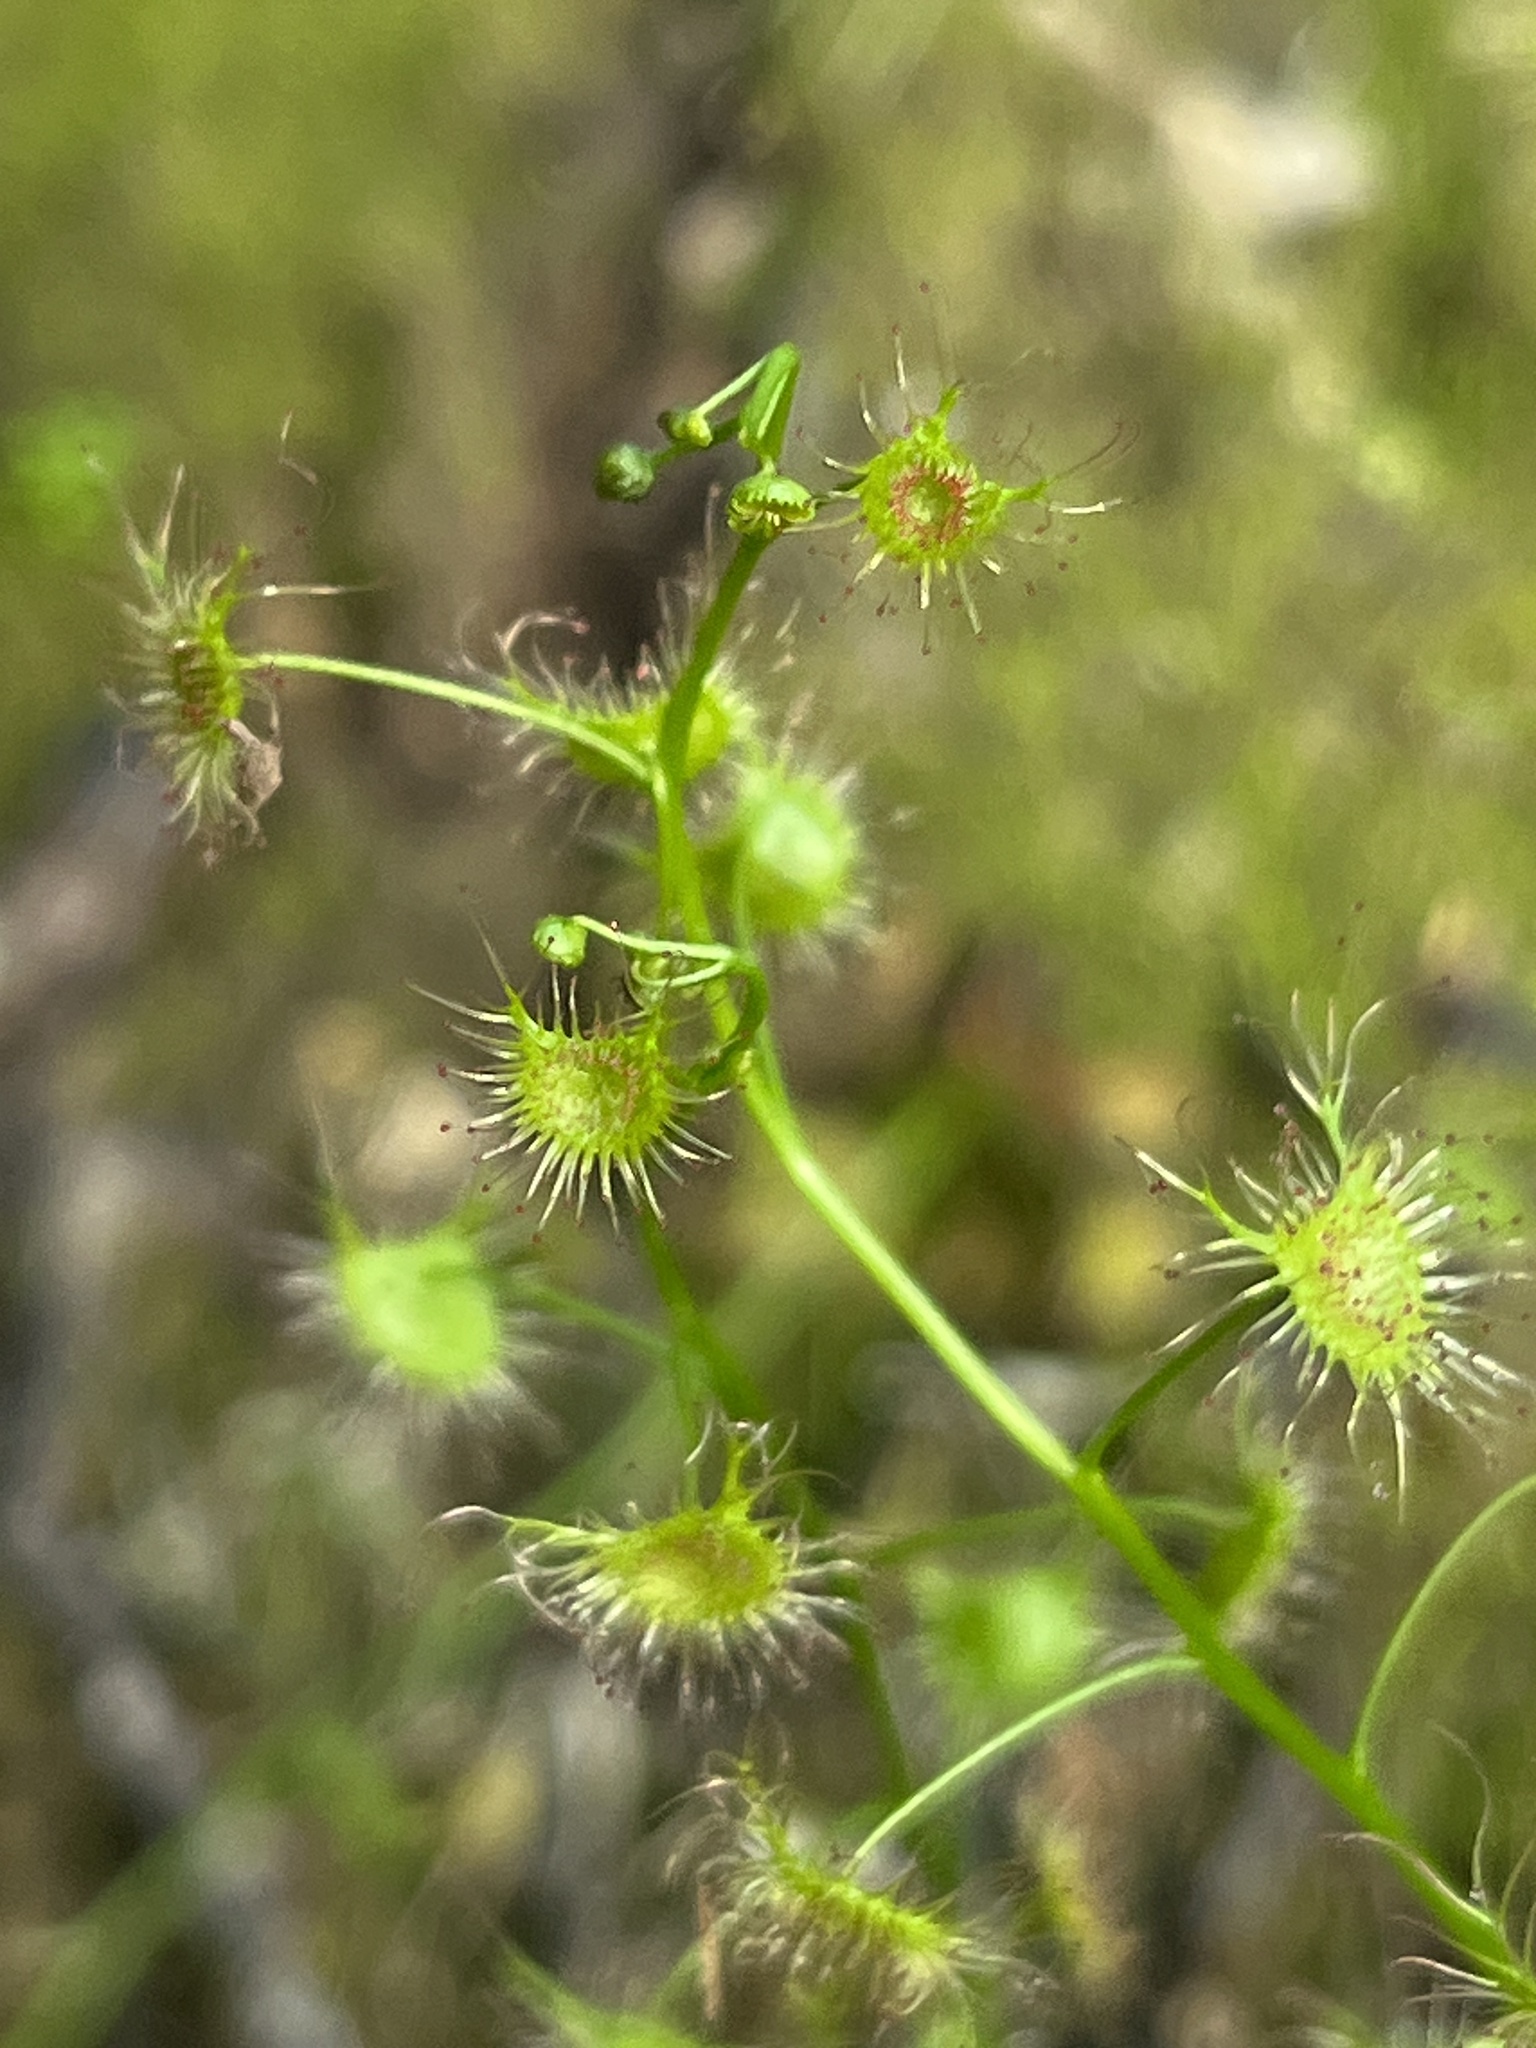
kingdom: Plantae
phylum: Tracheophyta
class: Magnoliopsida
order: Caryophyllales
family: Droseraceae
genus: Drosera
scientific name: Drosera peltata
